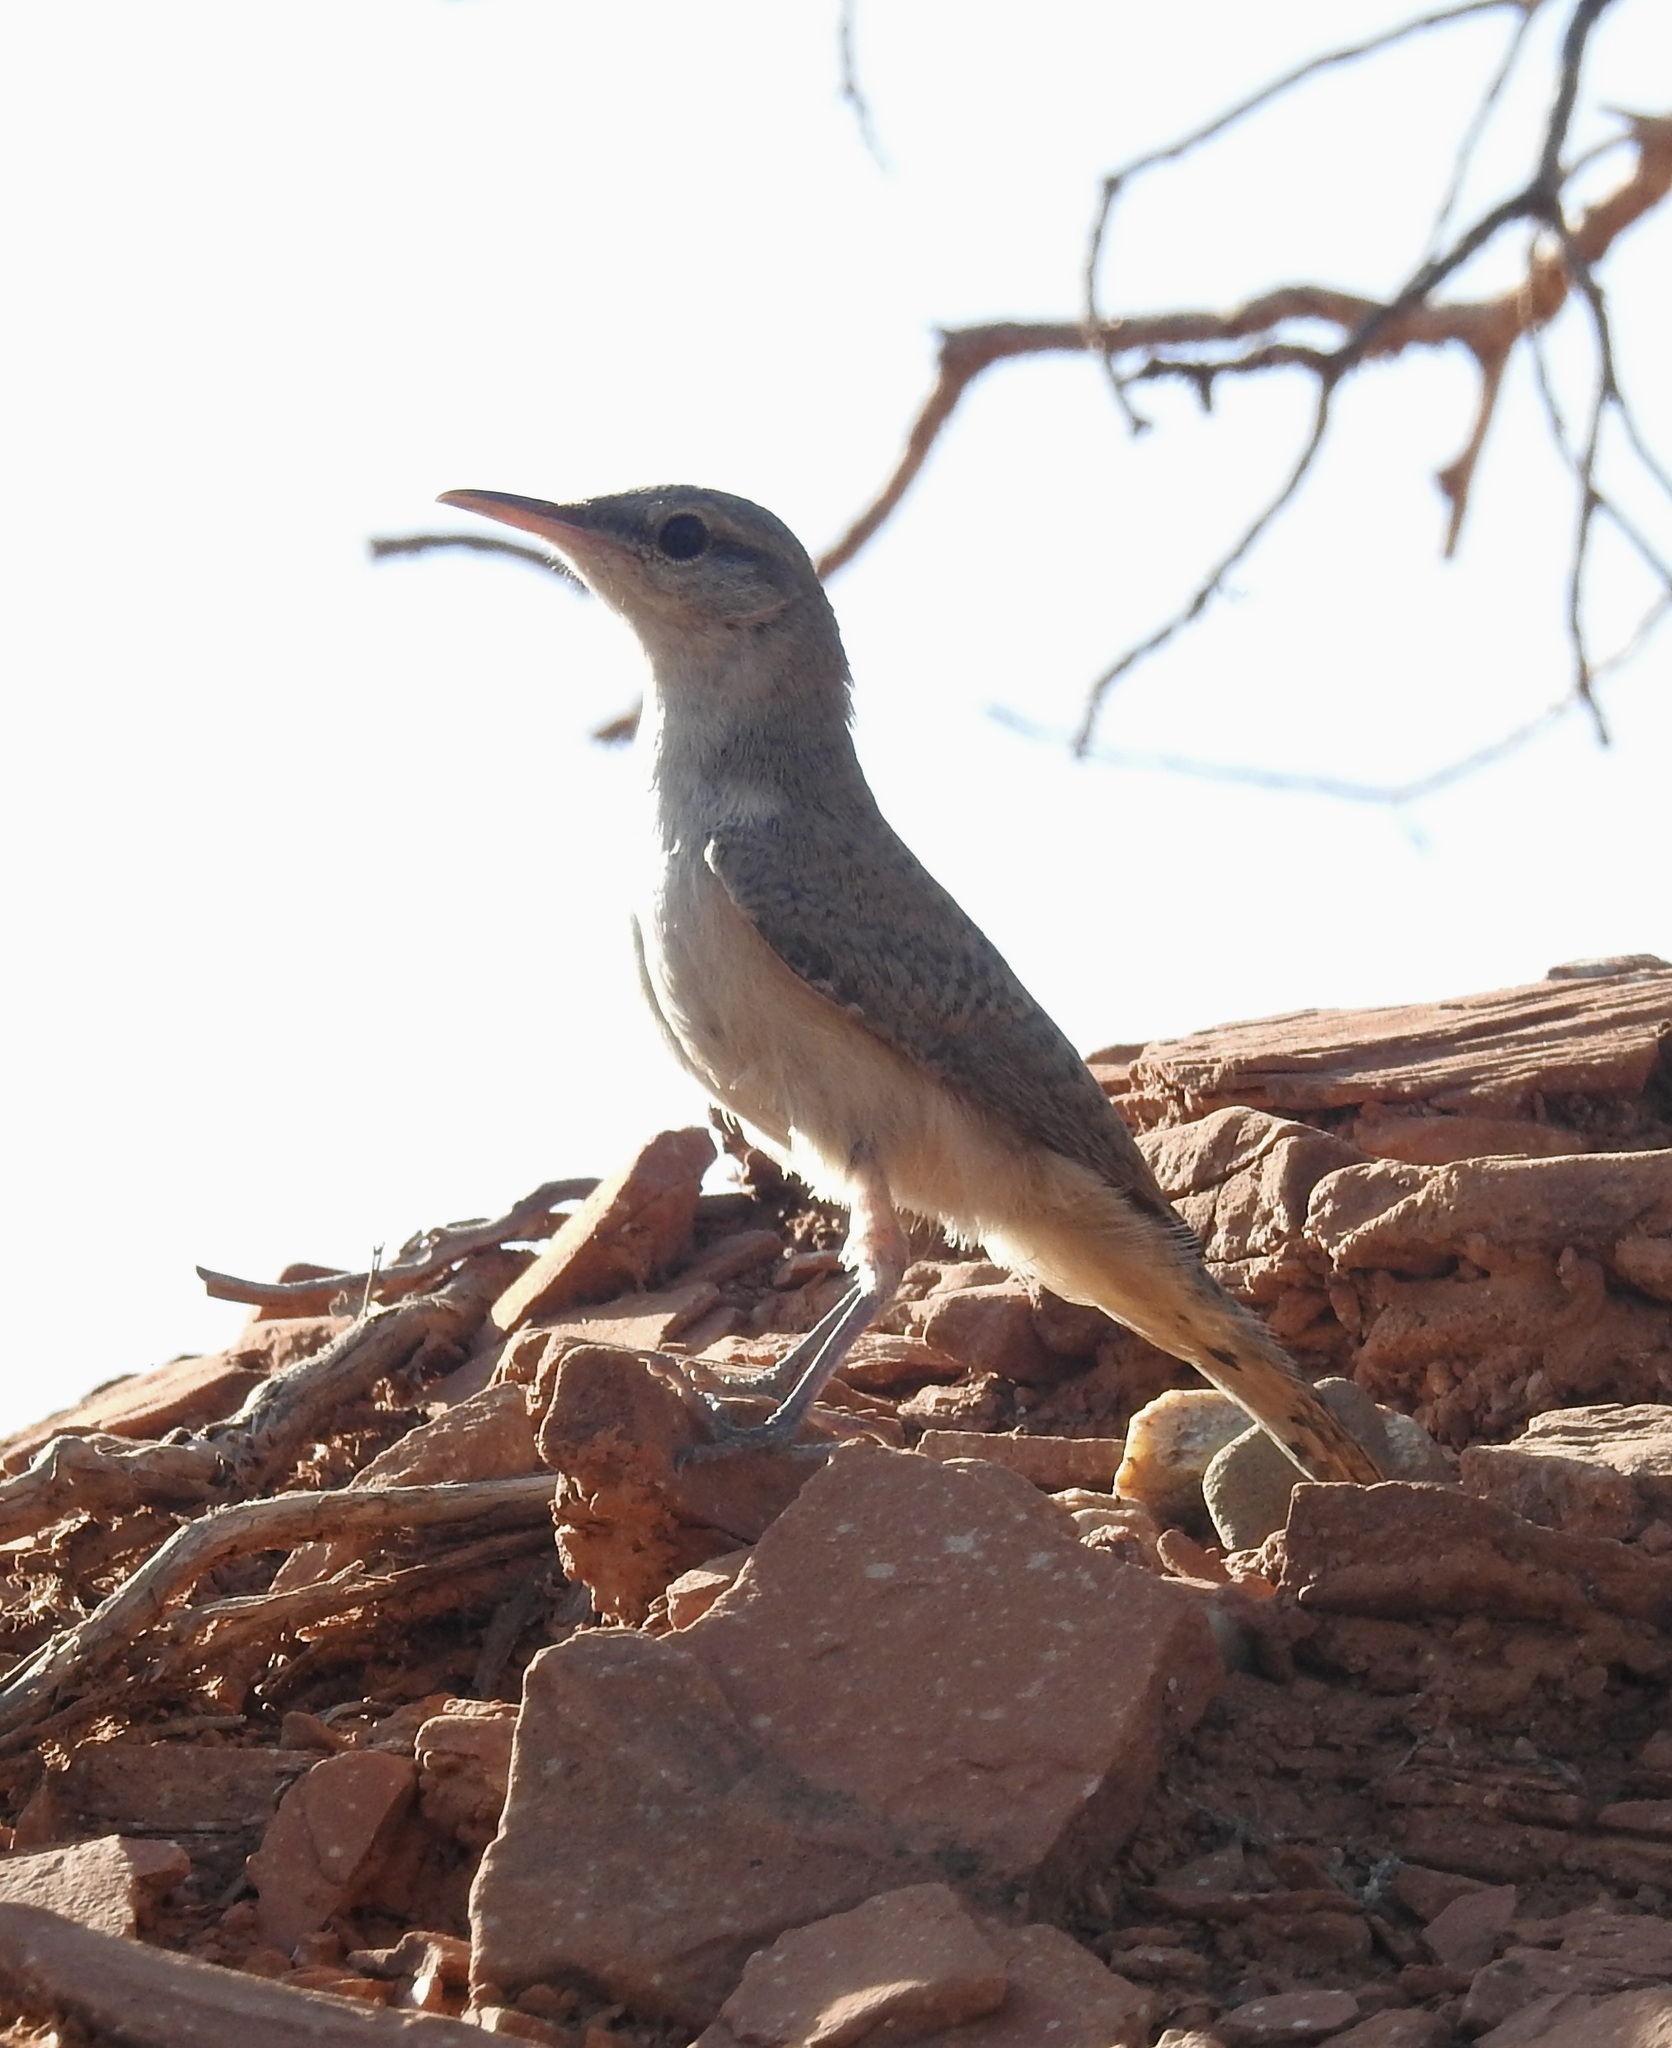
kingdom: Animalia
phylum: Chordata
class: Aves
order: Passeriformes
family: Troglodytidae
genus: Salpinctes
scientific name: Salpinctes obsoletus
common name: Rock wren
